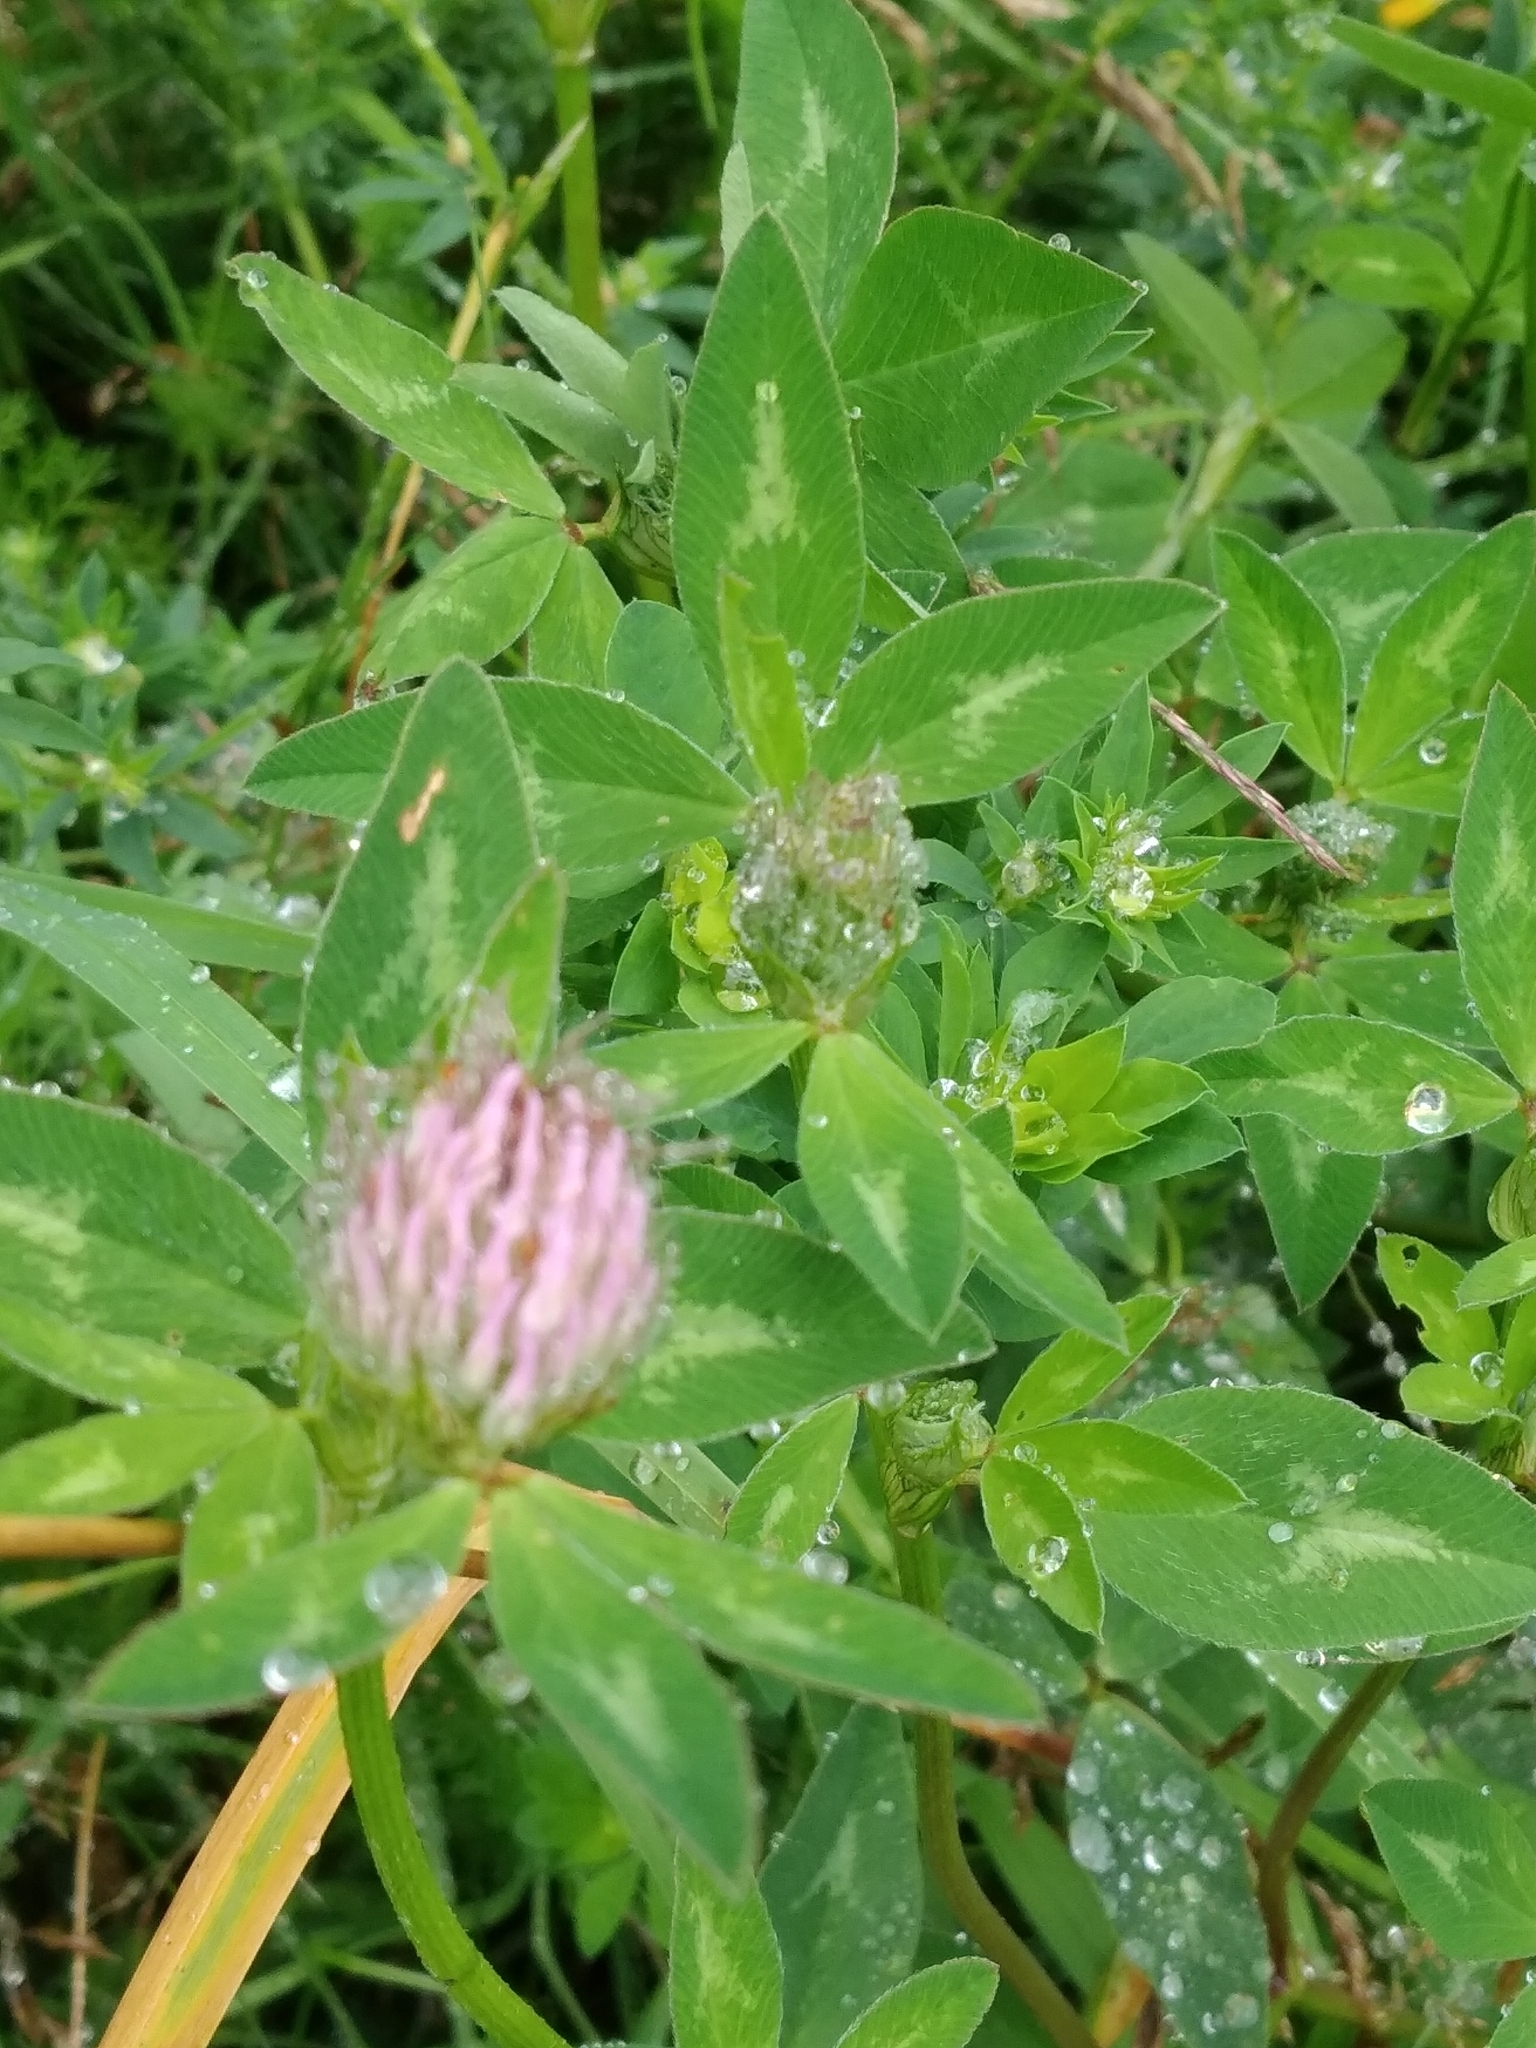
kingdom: Plantae
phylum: Tracheophyta
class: Magnoliopsida
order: Fabales
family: Fabaceae
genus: Trifolium
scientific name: Trifolium pratense
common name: Red clover
